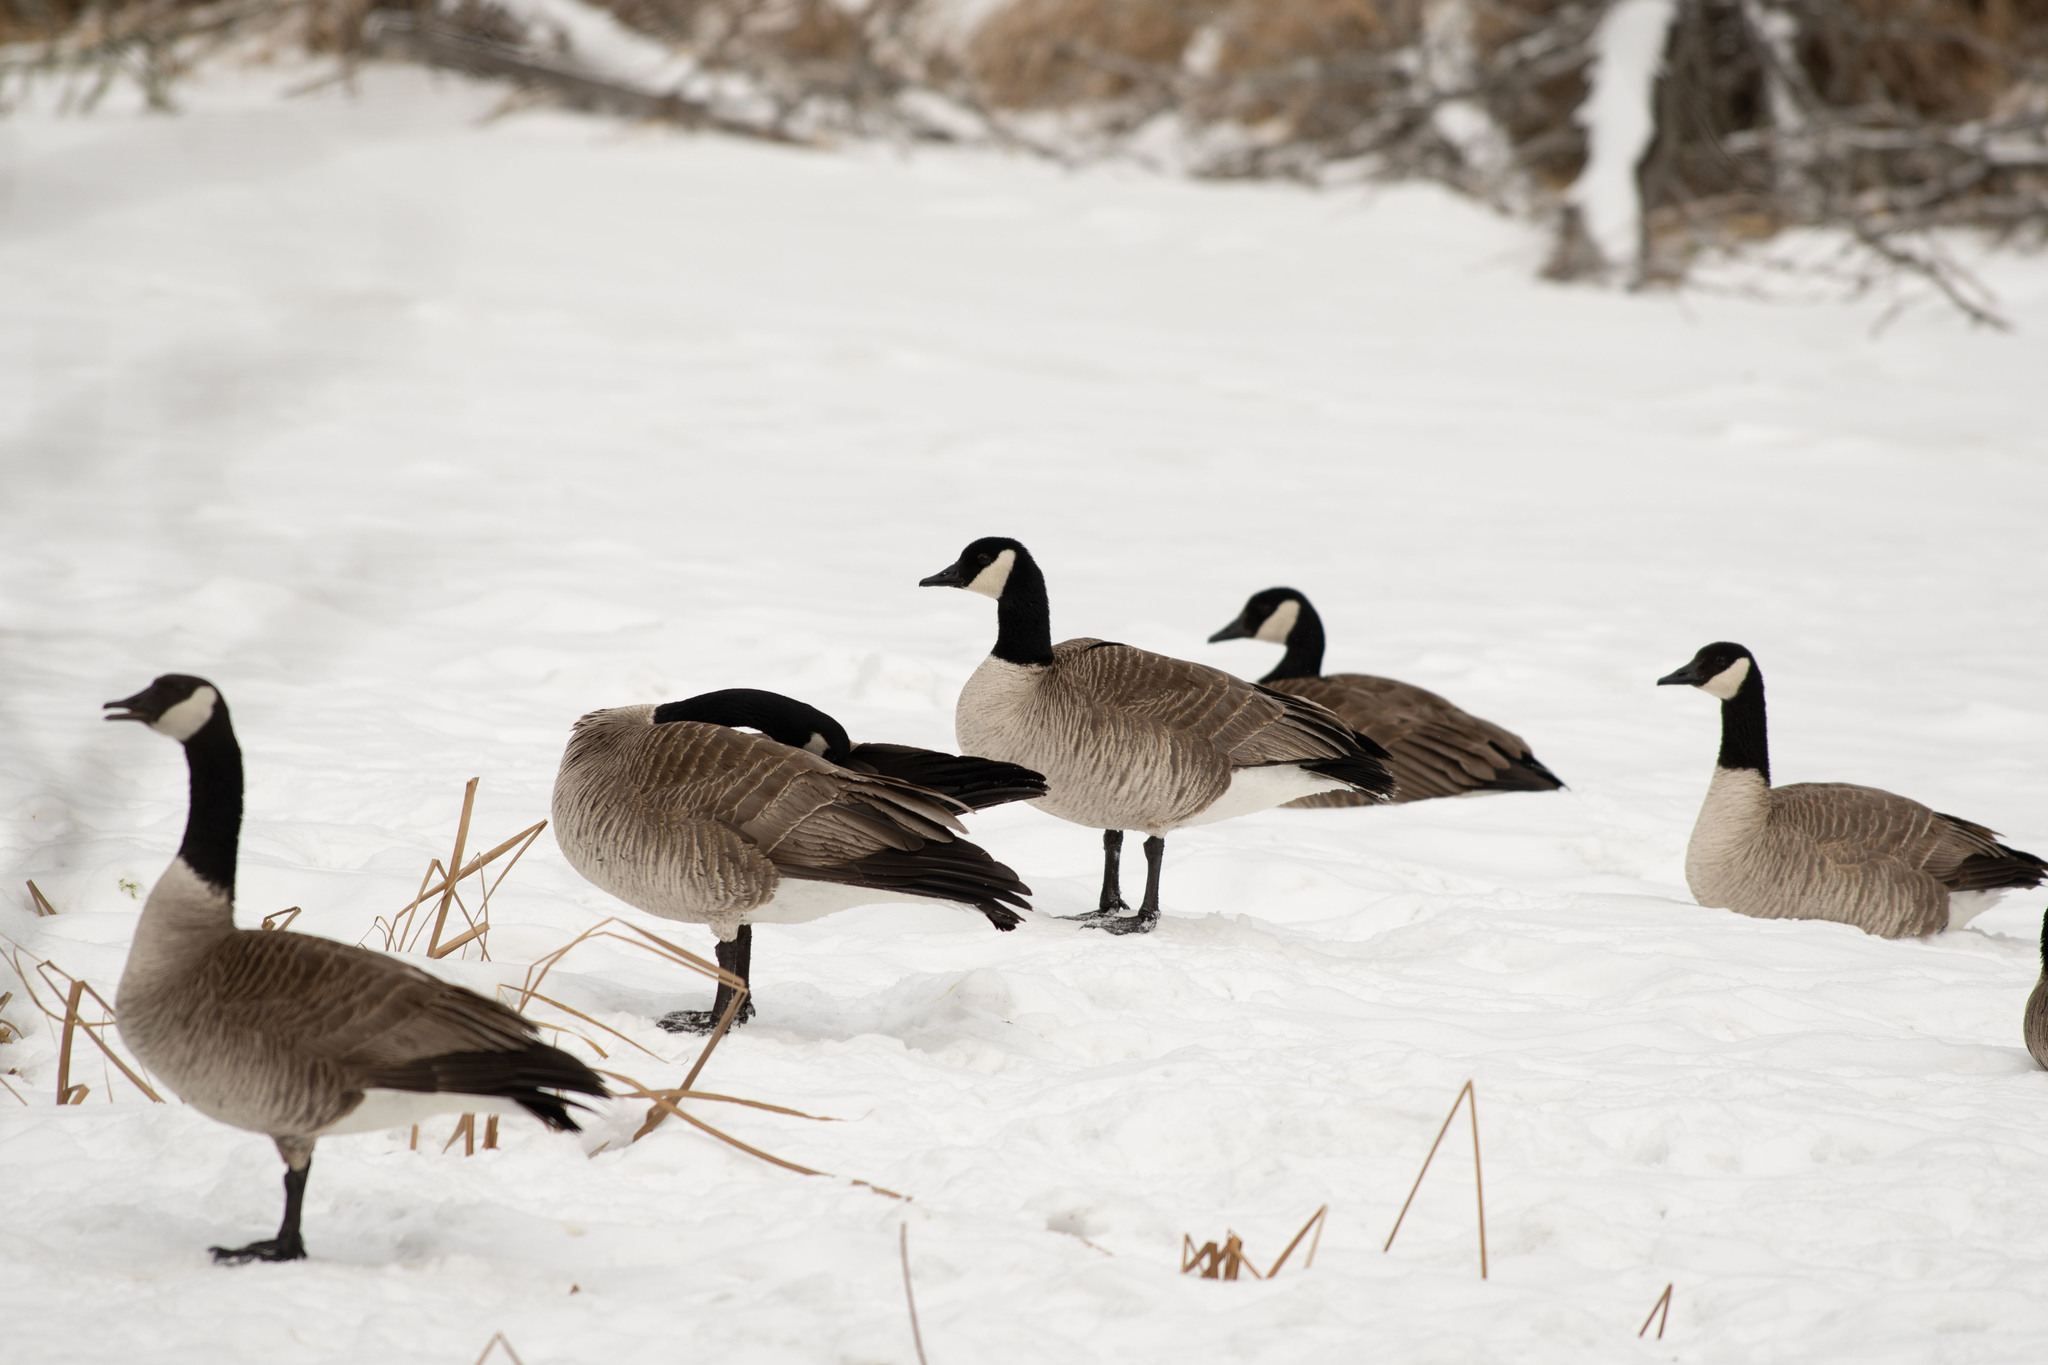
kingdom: Animalia
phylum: Chordata
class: Aves
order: Anseriformes
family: Anatidae
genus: Branta
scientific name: Branta canadensis
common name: Canada goose
